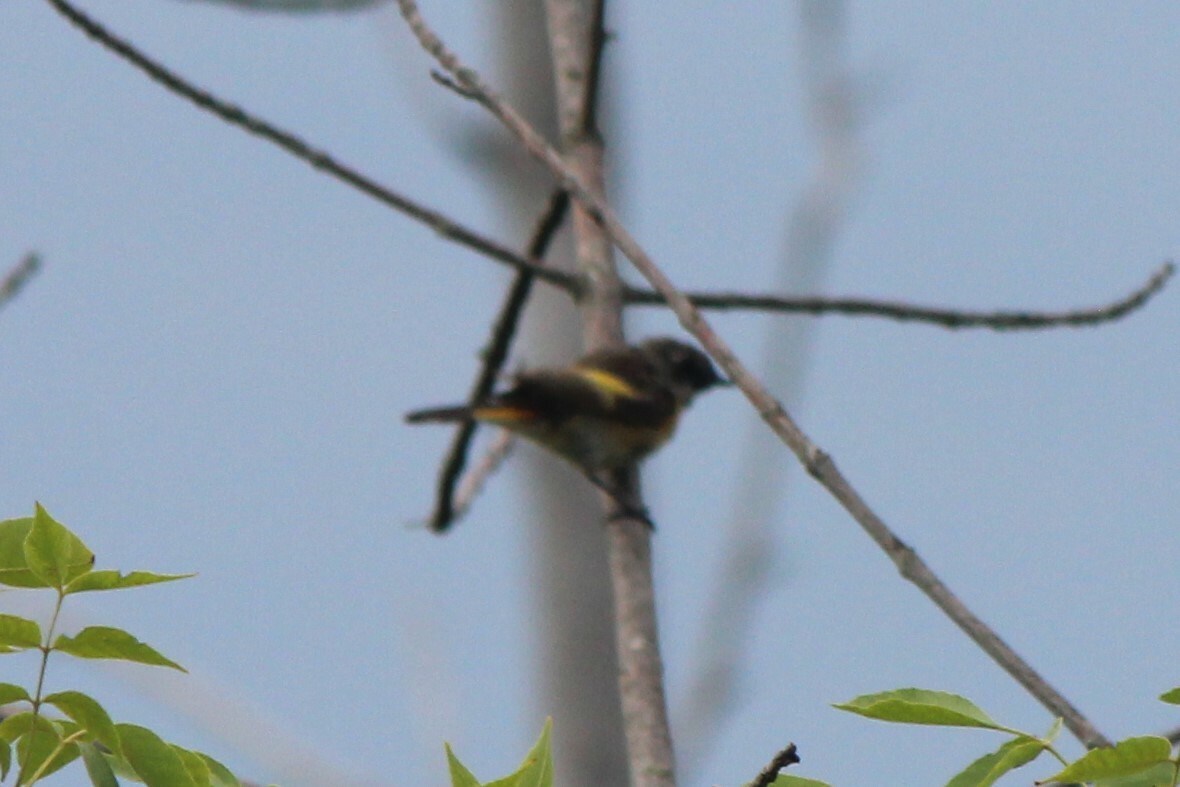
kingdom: Animalia
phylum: Chordata
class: Aves
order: Passeriformes
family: Parulidae
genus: Setophaga
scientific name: Setophaga ruticilla
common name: American redstart
